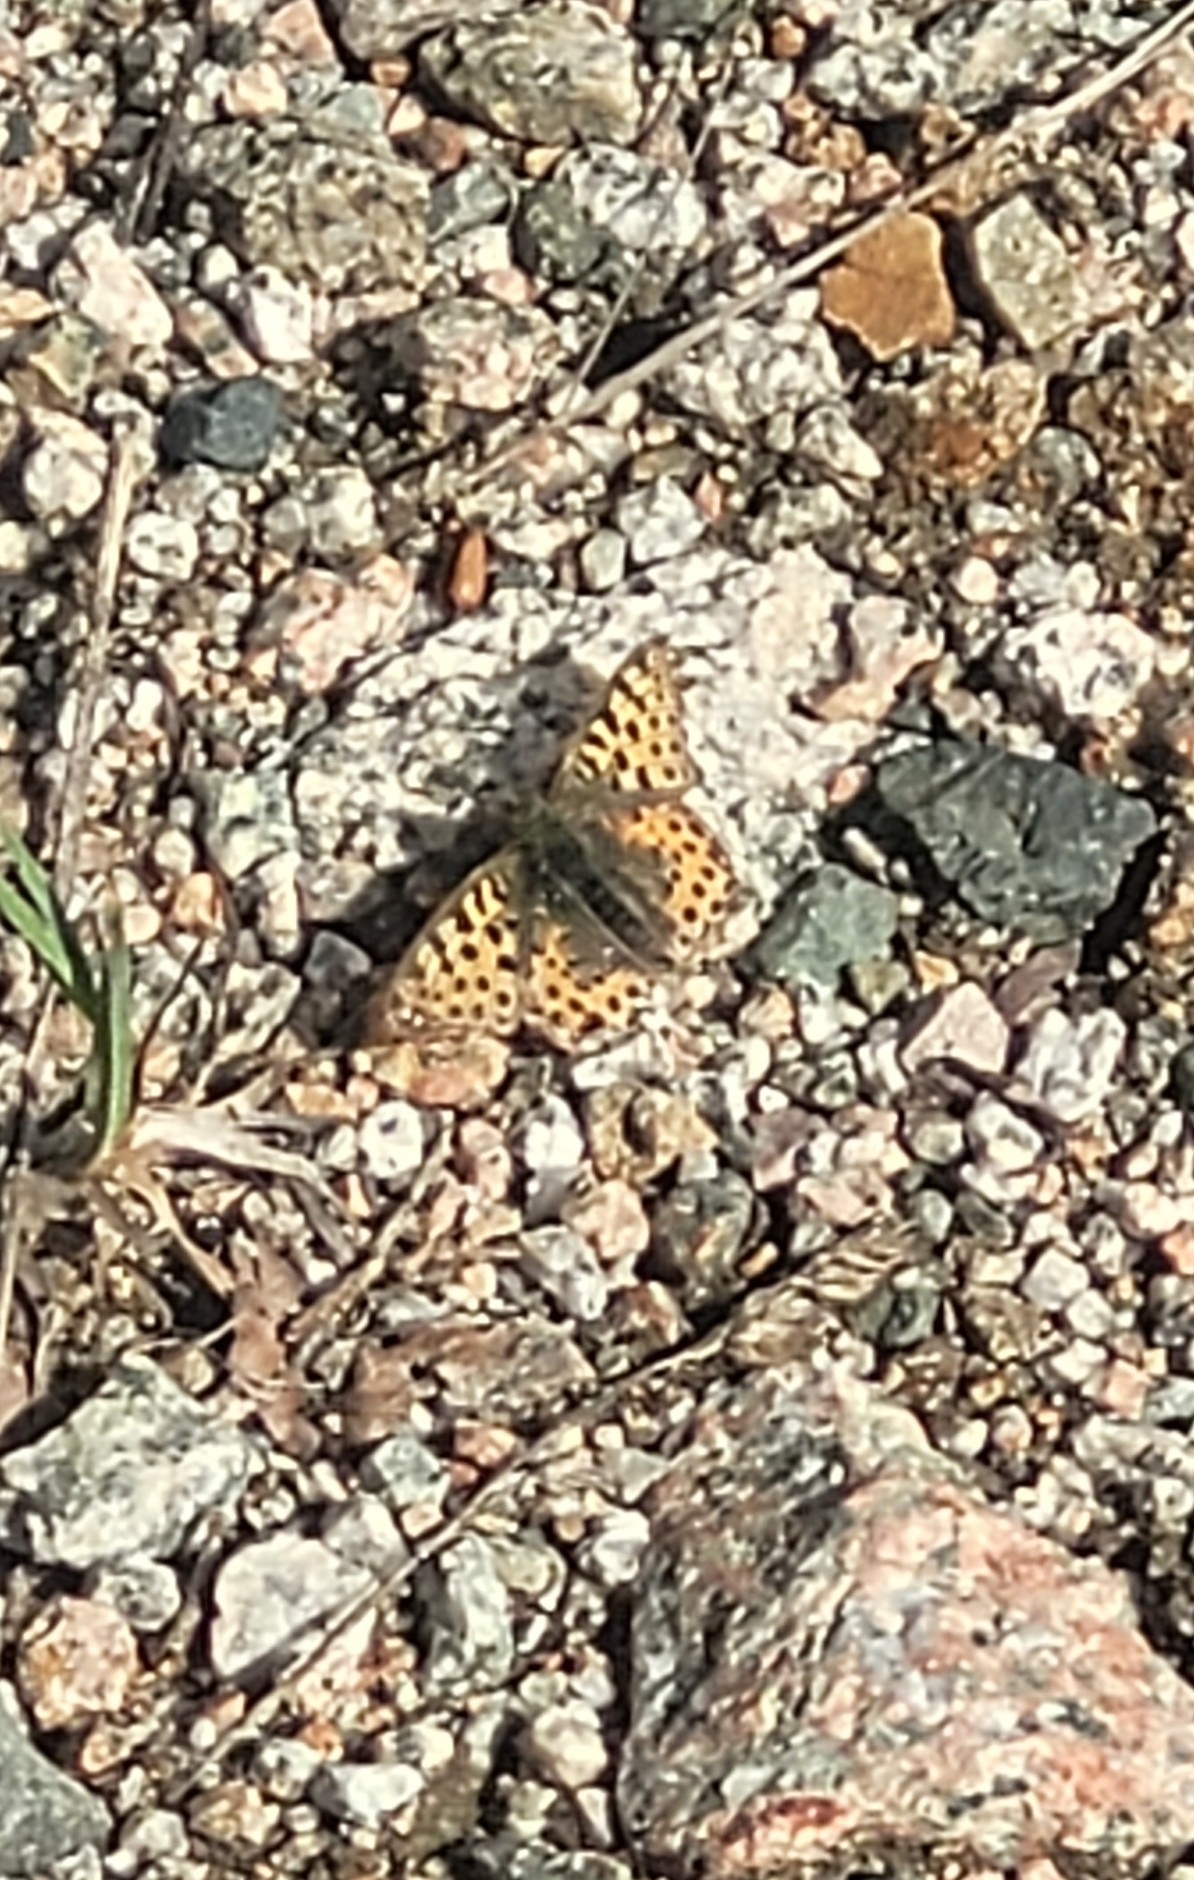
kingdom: Animalia
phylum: Arthropoda
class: Insecta
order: Lepidoptera
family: Nymphalidae
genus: Issoria
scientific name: Issoria lathonia
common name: Queen of spain fritillary
